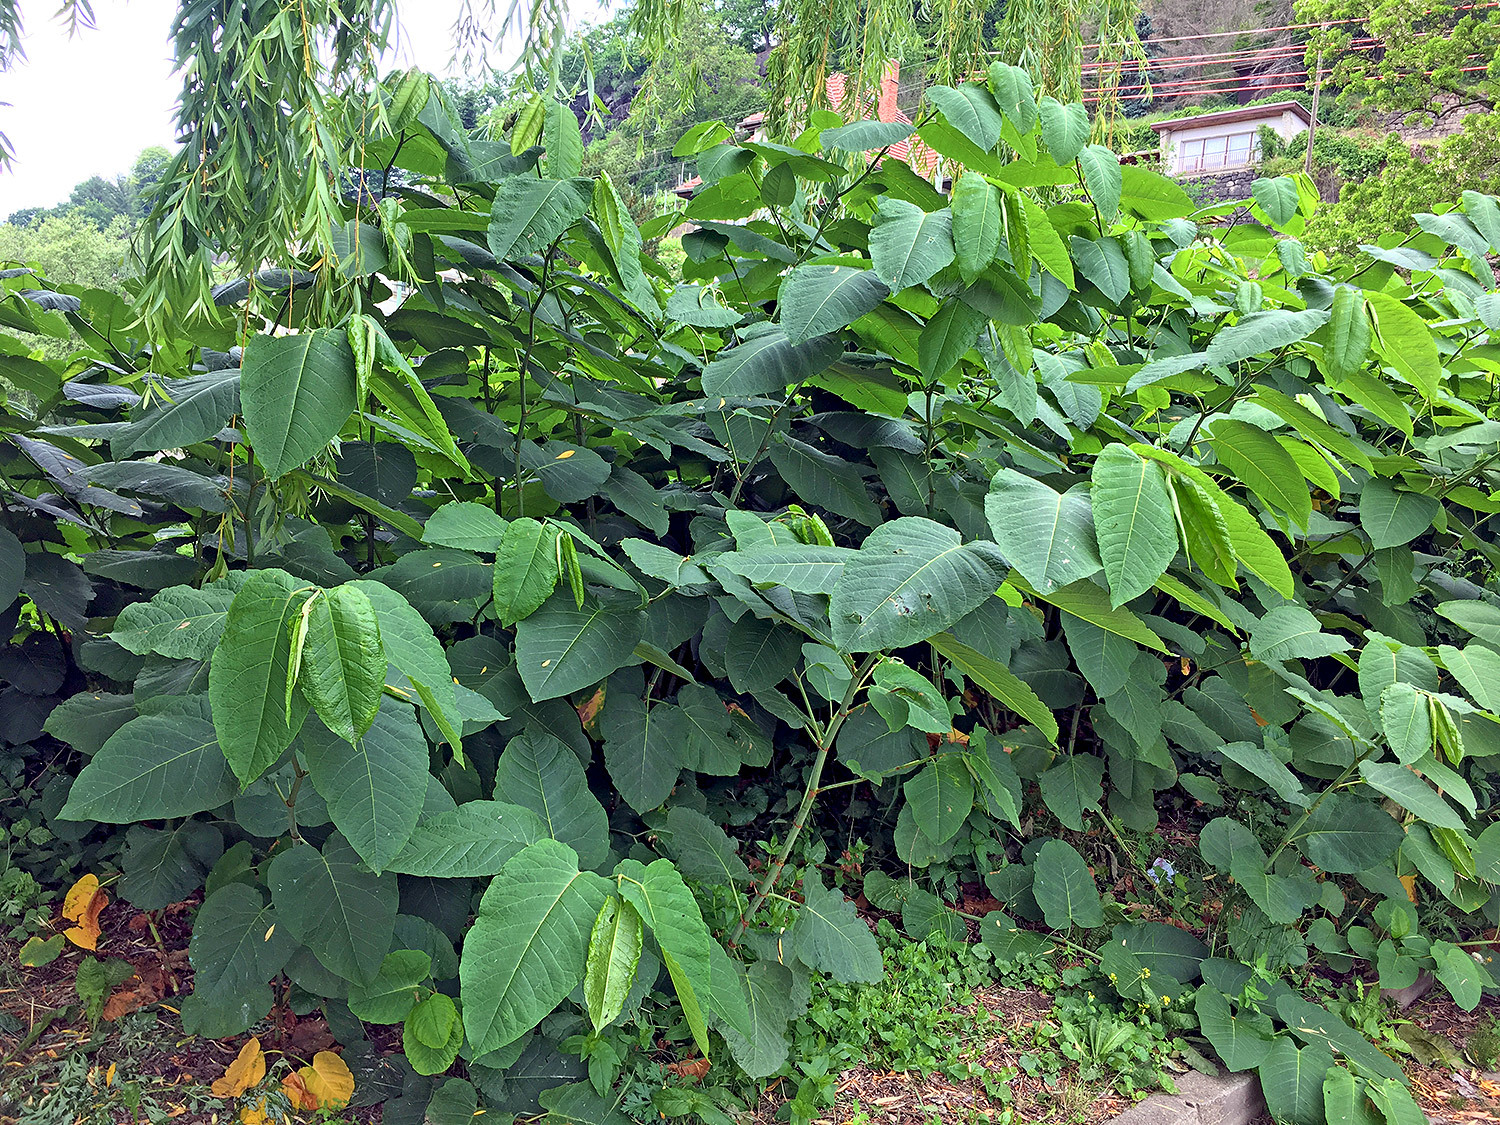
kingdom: Plantae
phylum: Tracheophyta
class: Magnoliopsida
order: Caryophyllales
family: Polygonaceae
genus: Reynoutria
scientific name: Reynoutria sachalinensis
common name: Giant knotweed
